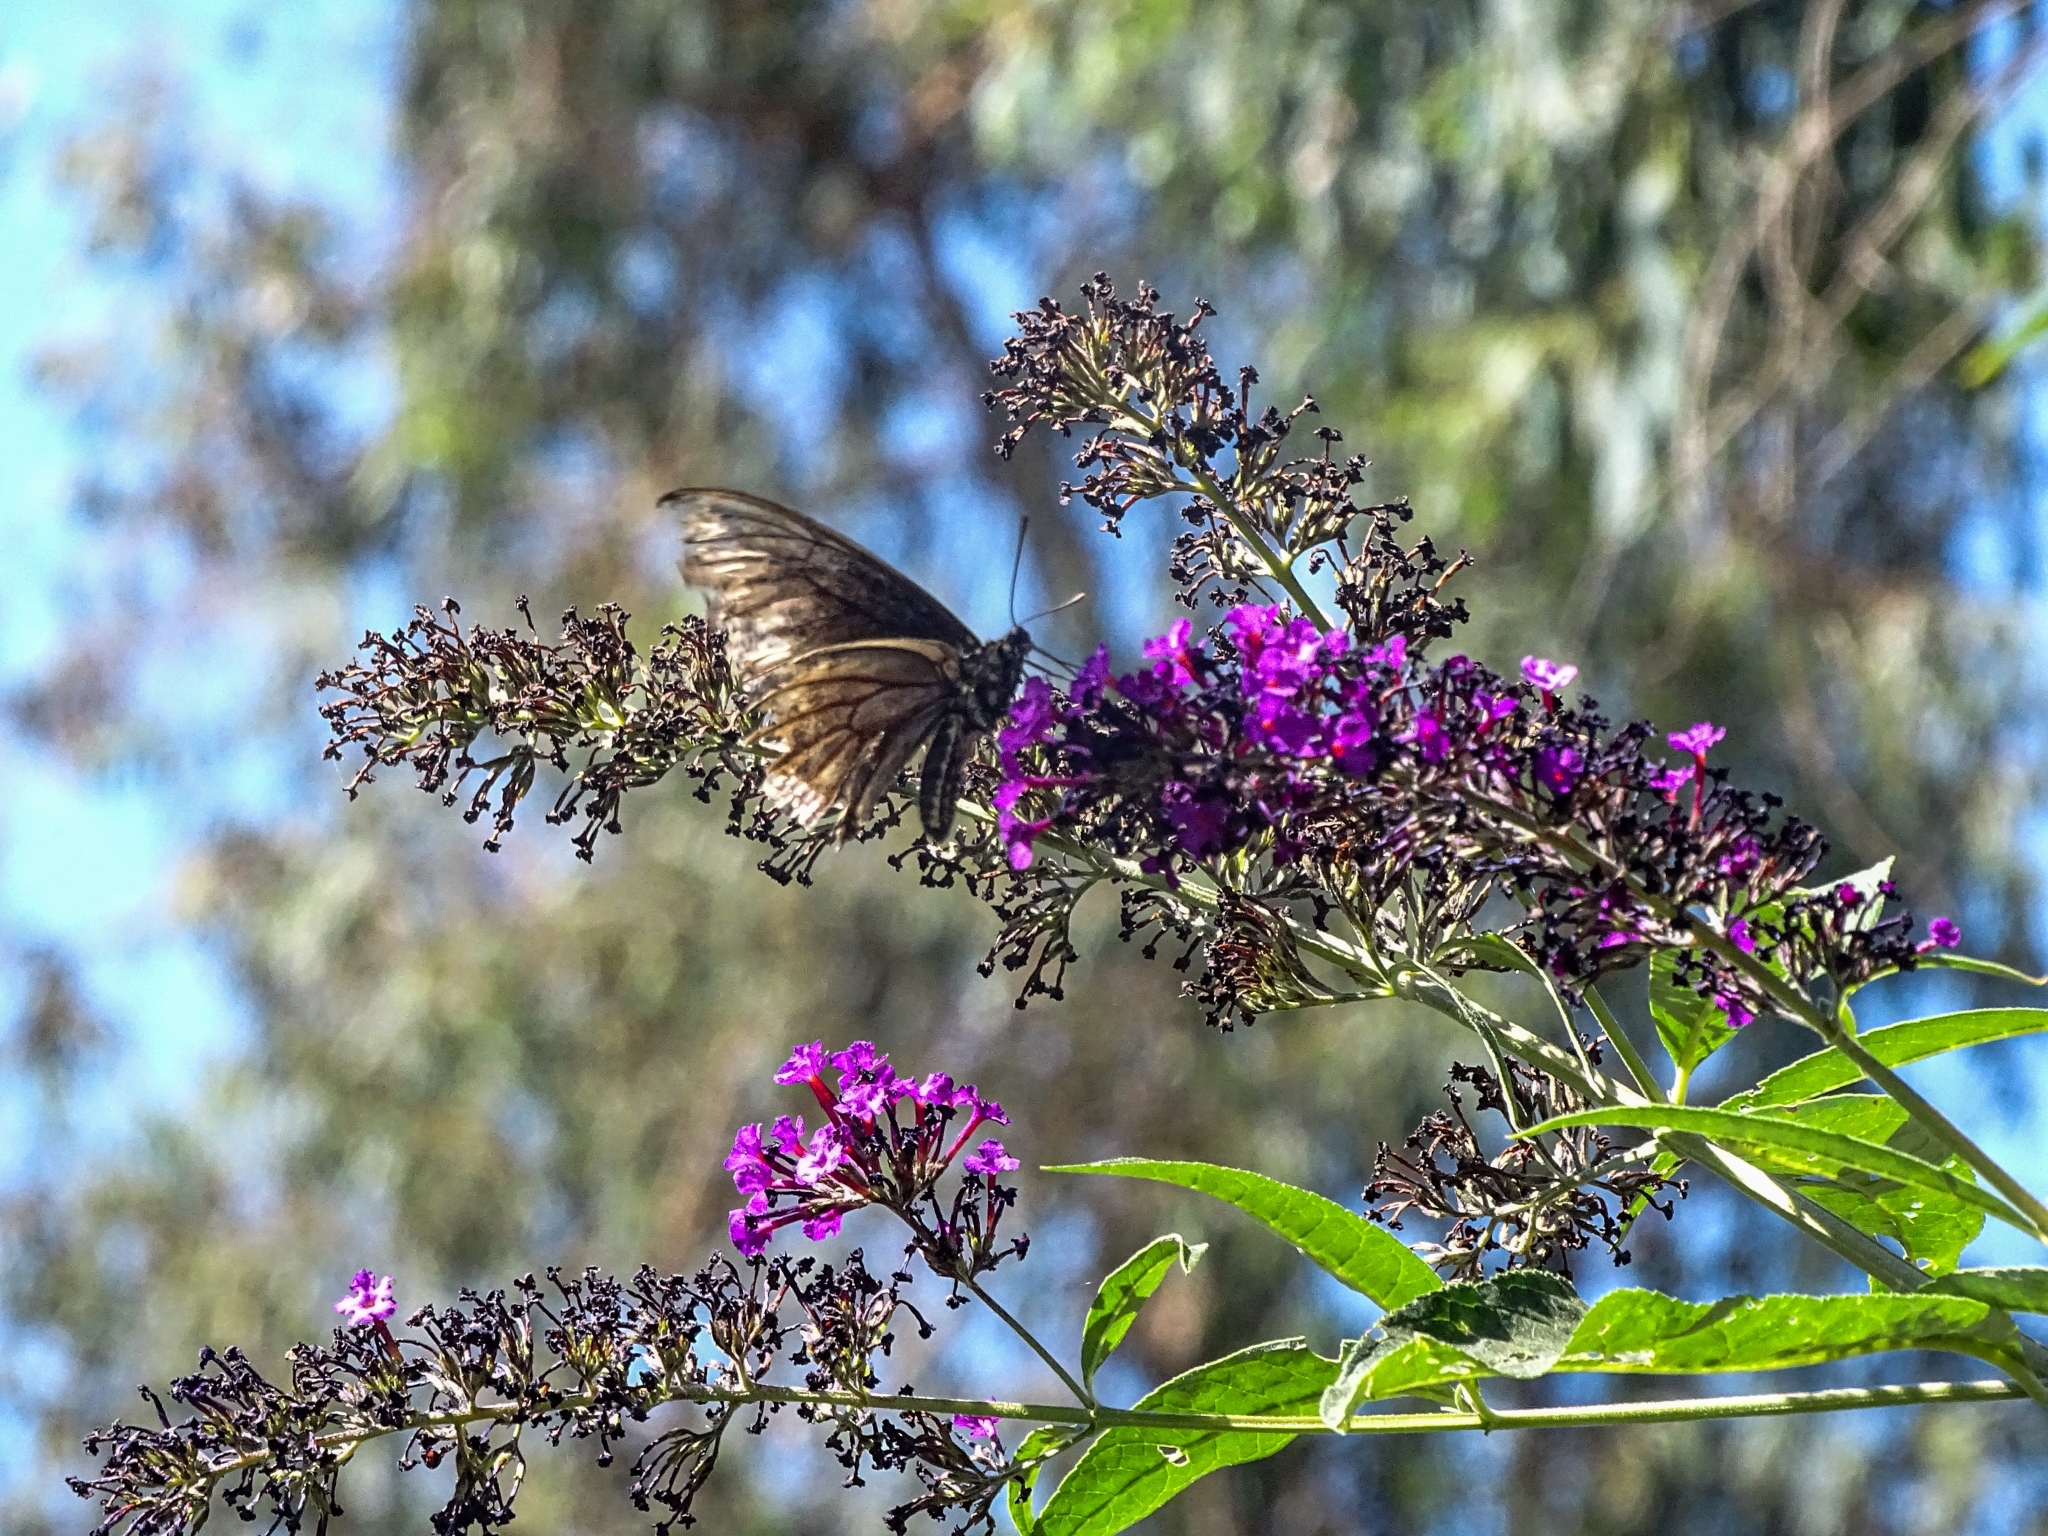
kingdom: Animalia
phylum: Arthropoda
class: Insecta
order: Lepidoptera
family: Papilionidae
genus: Battus
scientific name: Battus polydamas
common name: Polydamas swallowtail
